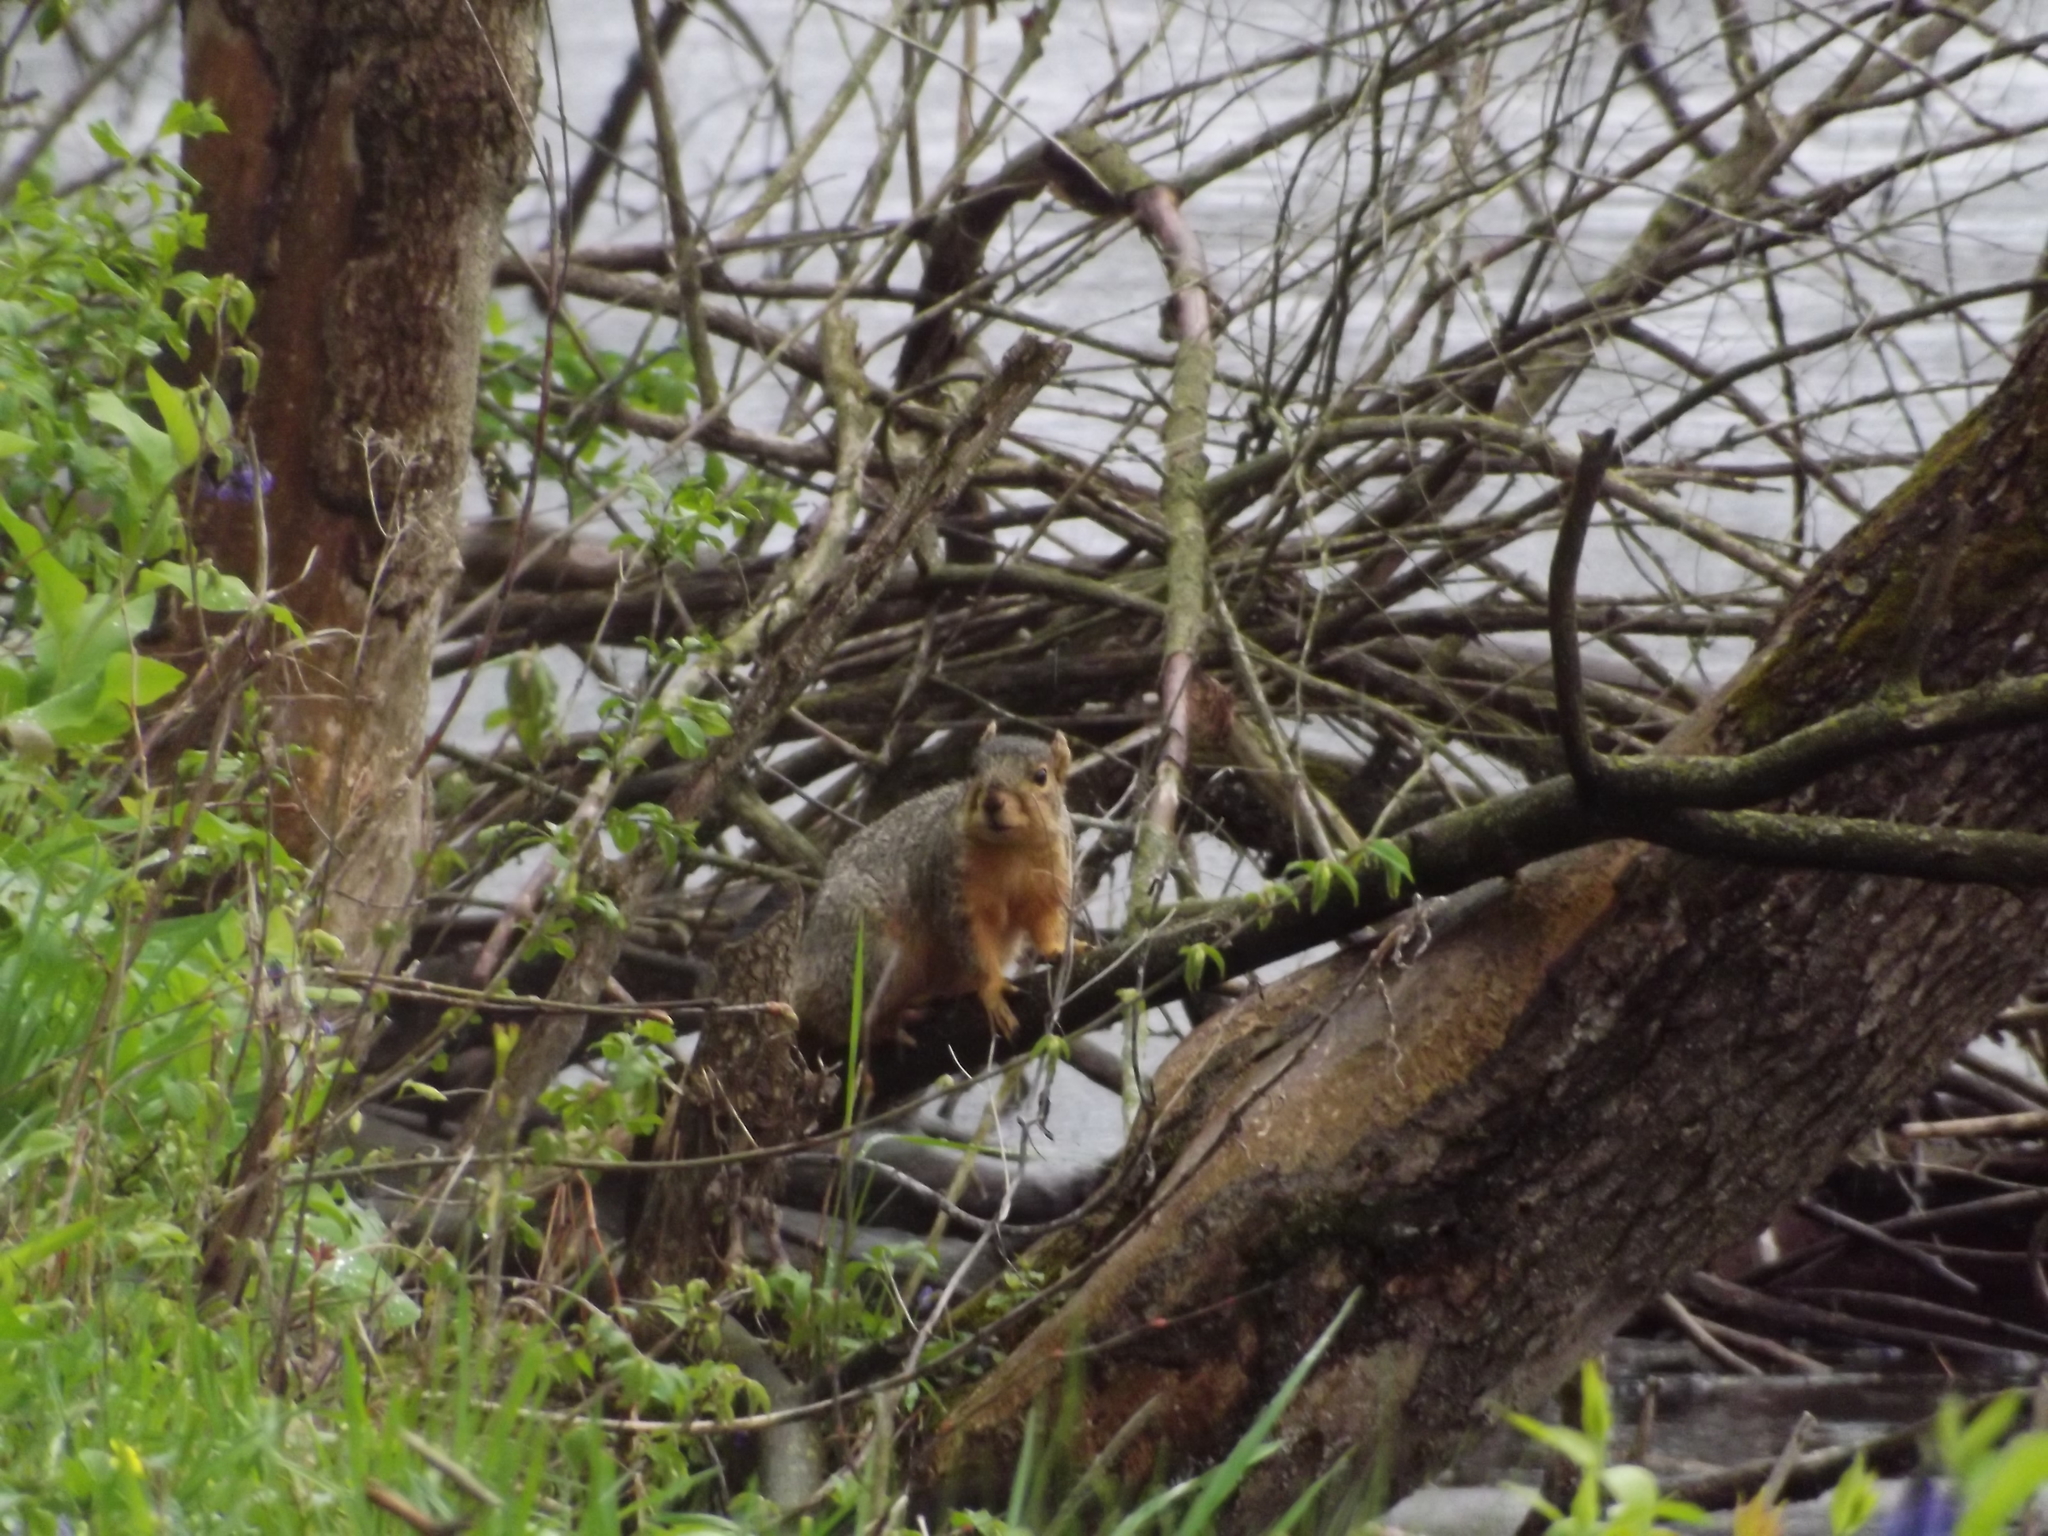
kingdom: Animalia
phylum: Chordata
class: Mammalia
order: Rodentia
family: Sciuridae
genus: Sciurus
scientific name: Sciurus niger
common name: Fox squirrel
